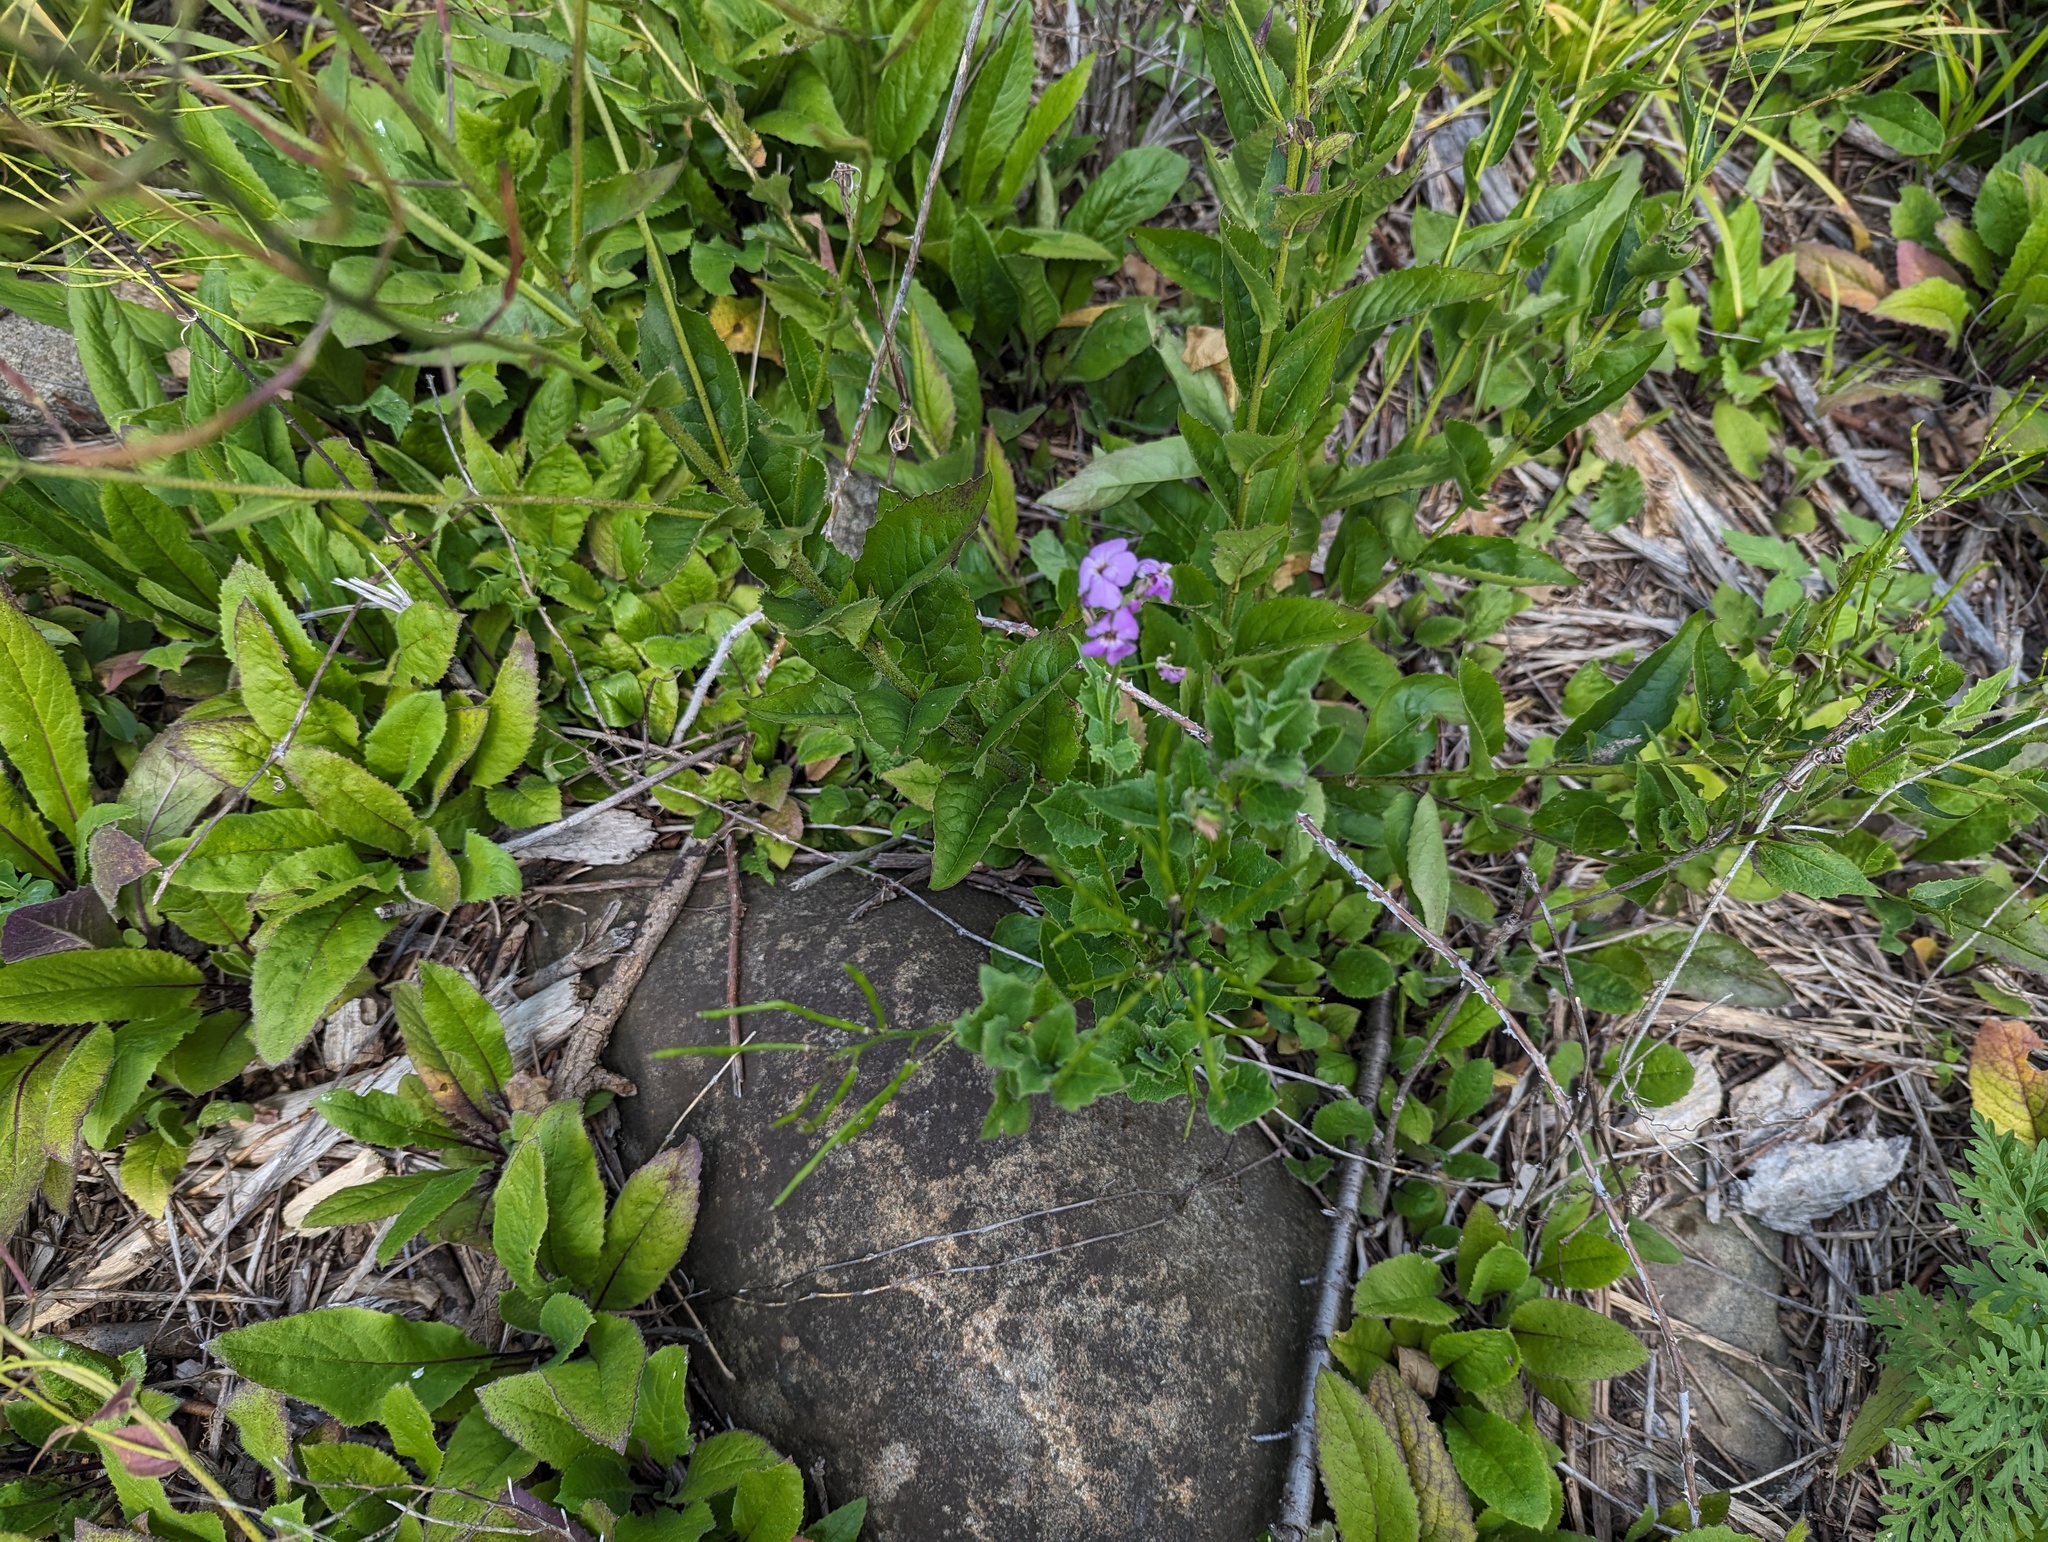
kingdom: Plantae
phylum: Tracheophyta
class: Magnoliopsida
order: Brassicales
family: Brassicaceae
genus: Hesperis
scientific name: Hesperis matronalis
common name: Dame's-violet
